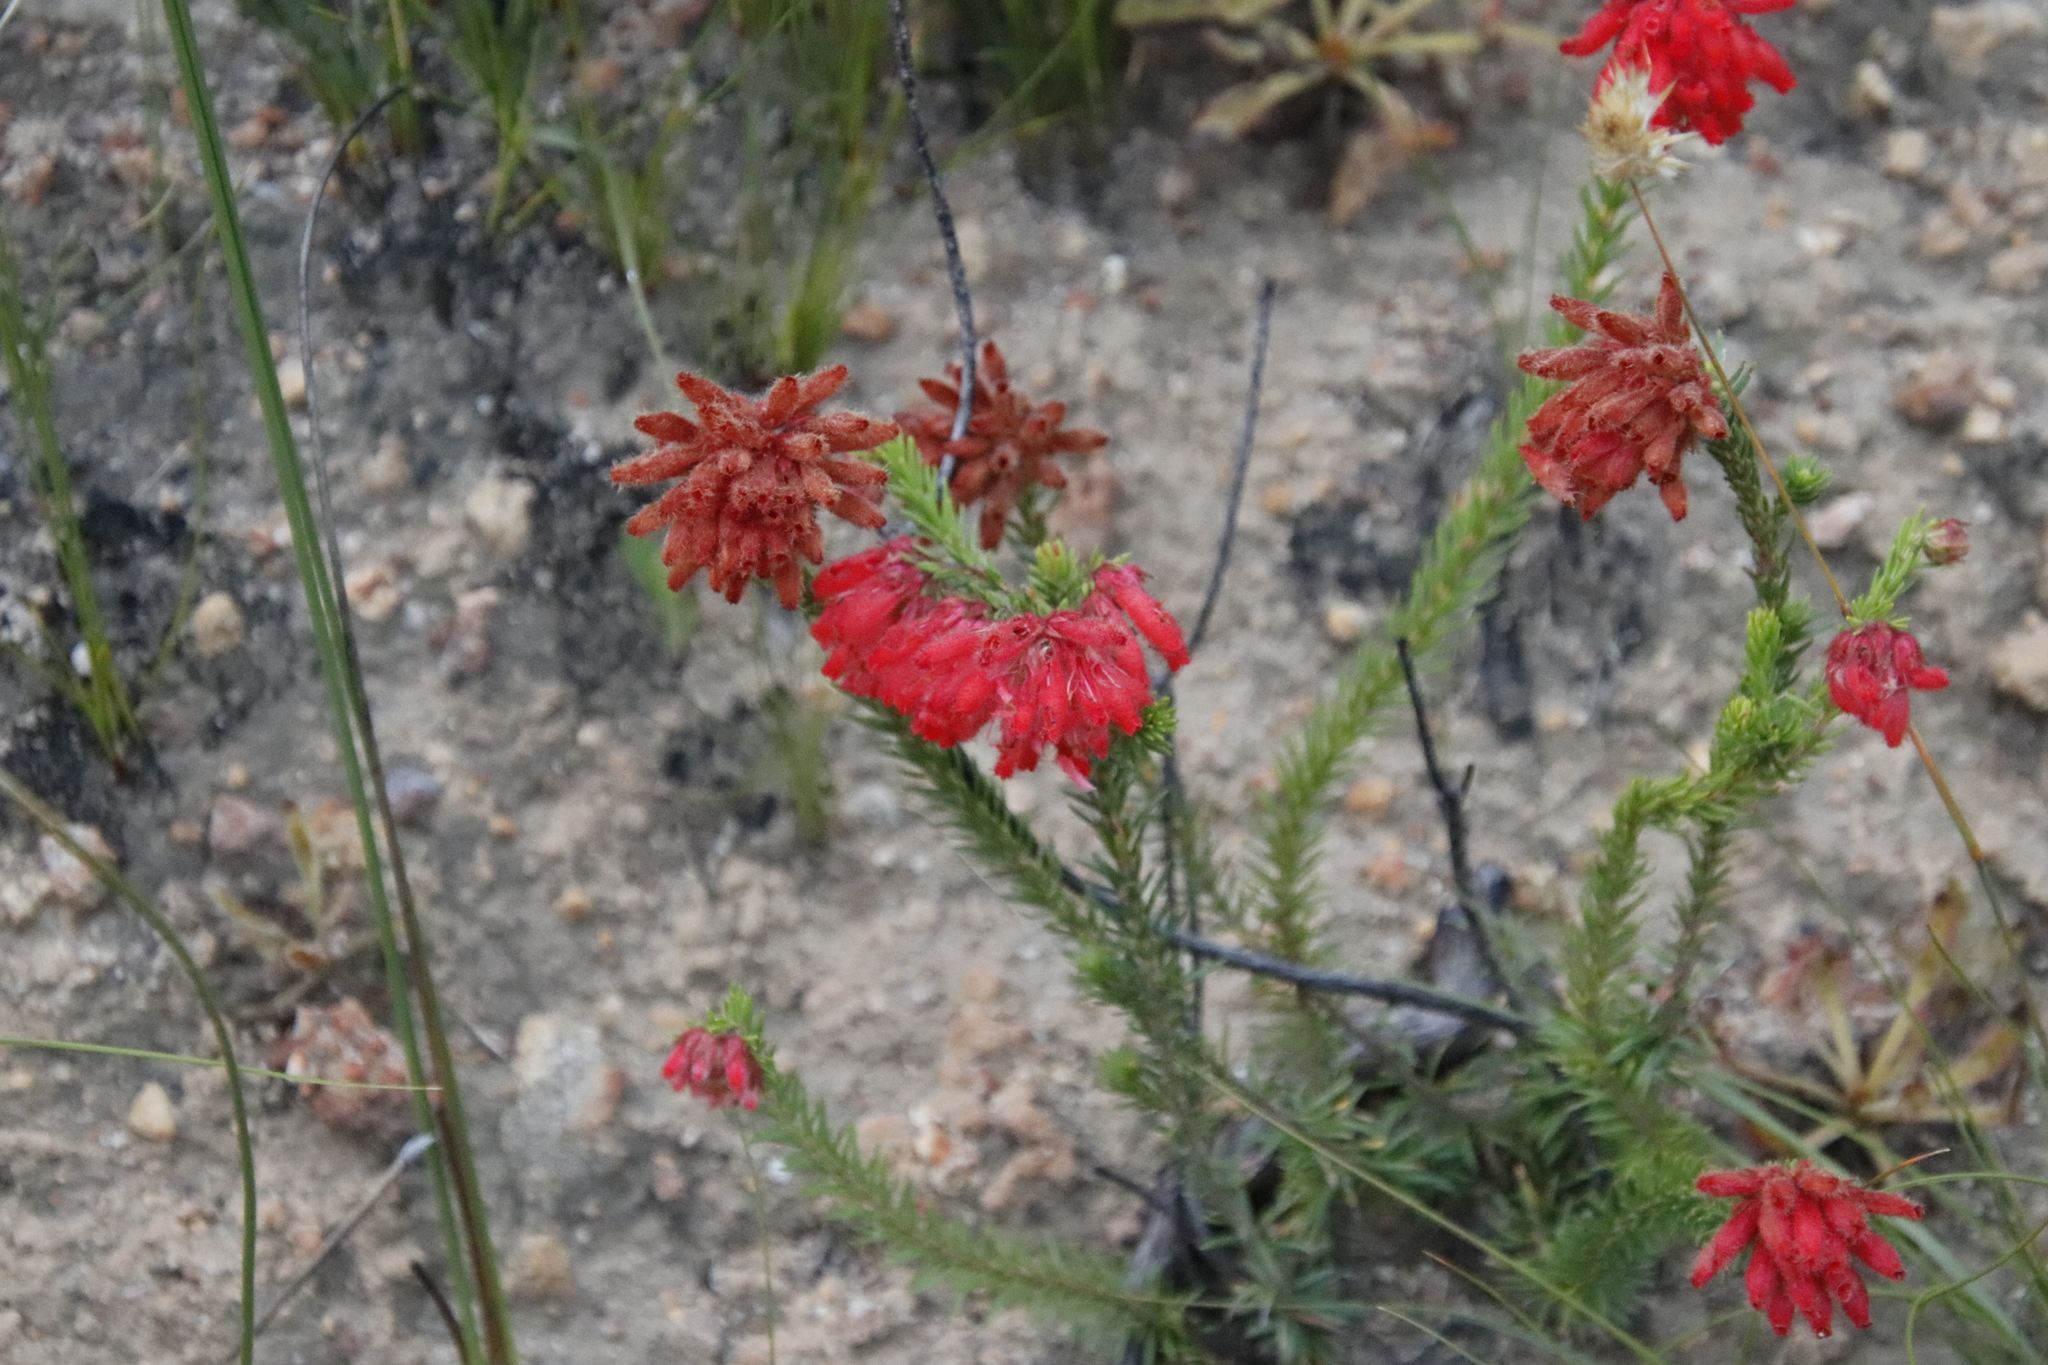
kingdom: Plantae
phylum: Tracheophyta
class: Magnoliopsida
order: Ericales
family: Ericaceae
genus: Erica
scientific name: Erica cerinthoides
